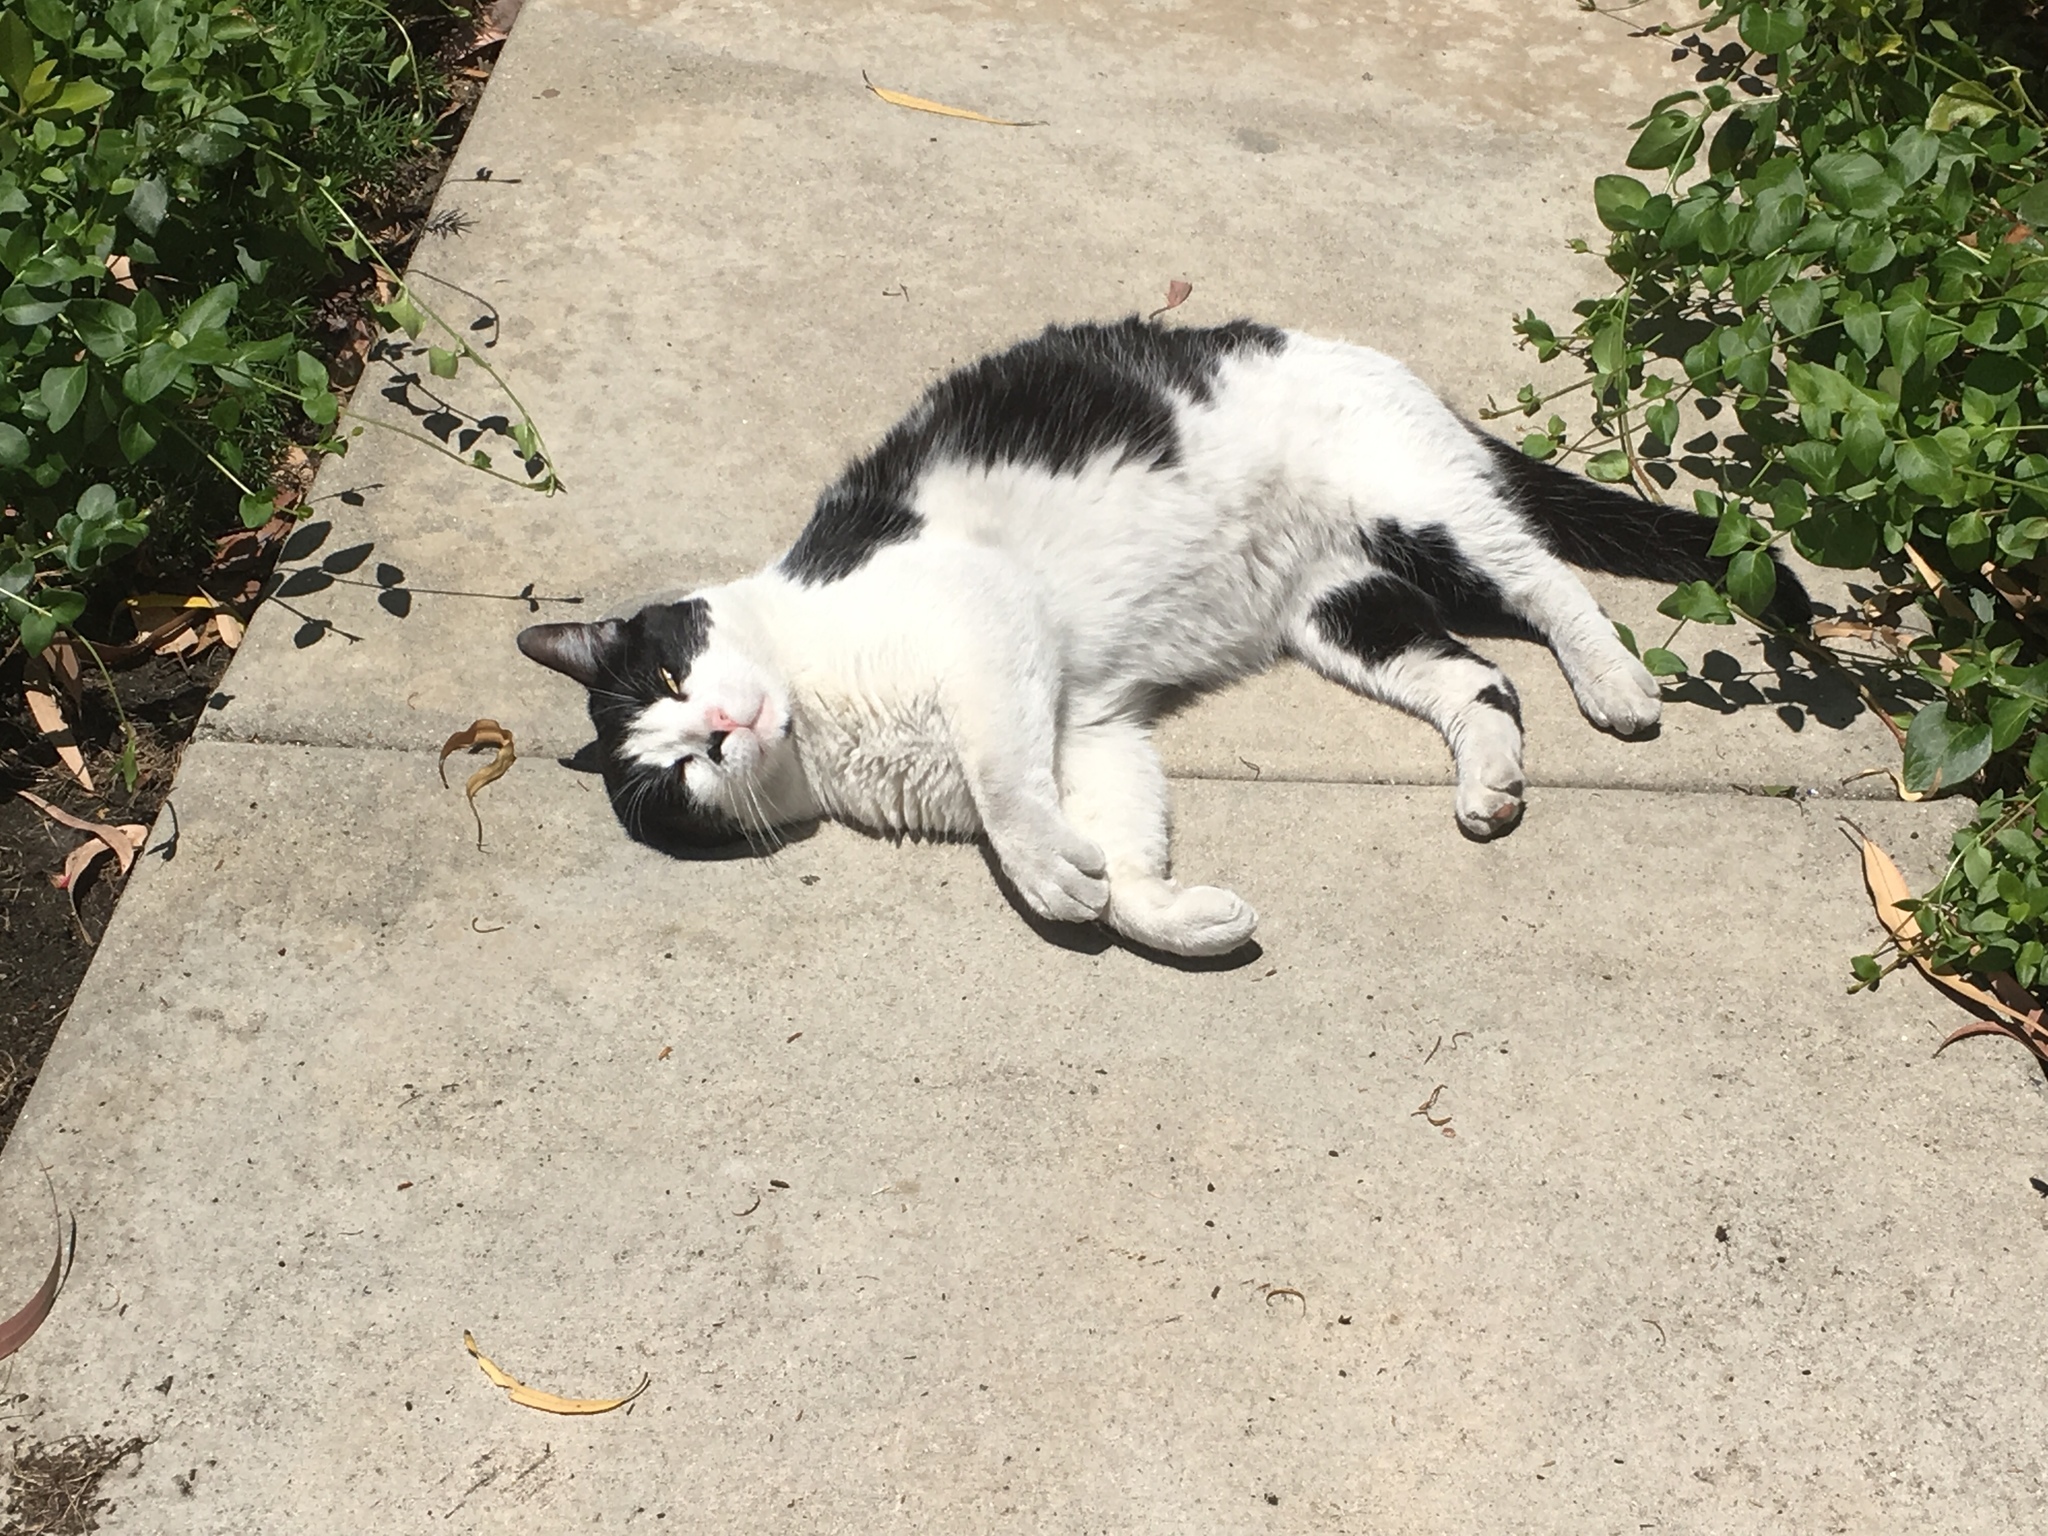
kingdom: Animalia
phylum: Chordata
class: Mammalia
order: Carnivora
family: Felidae
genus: Felis
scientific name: Felis catus
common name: Domestic cat
